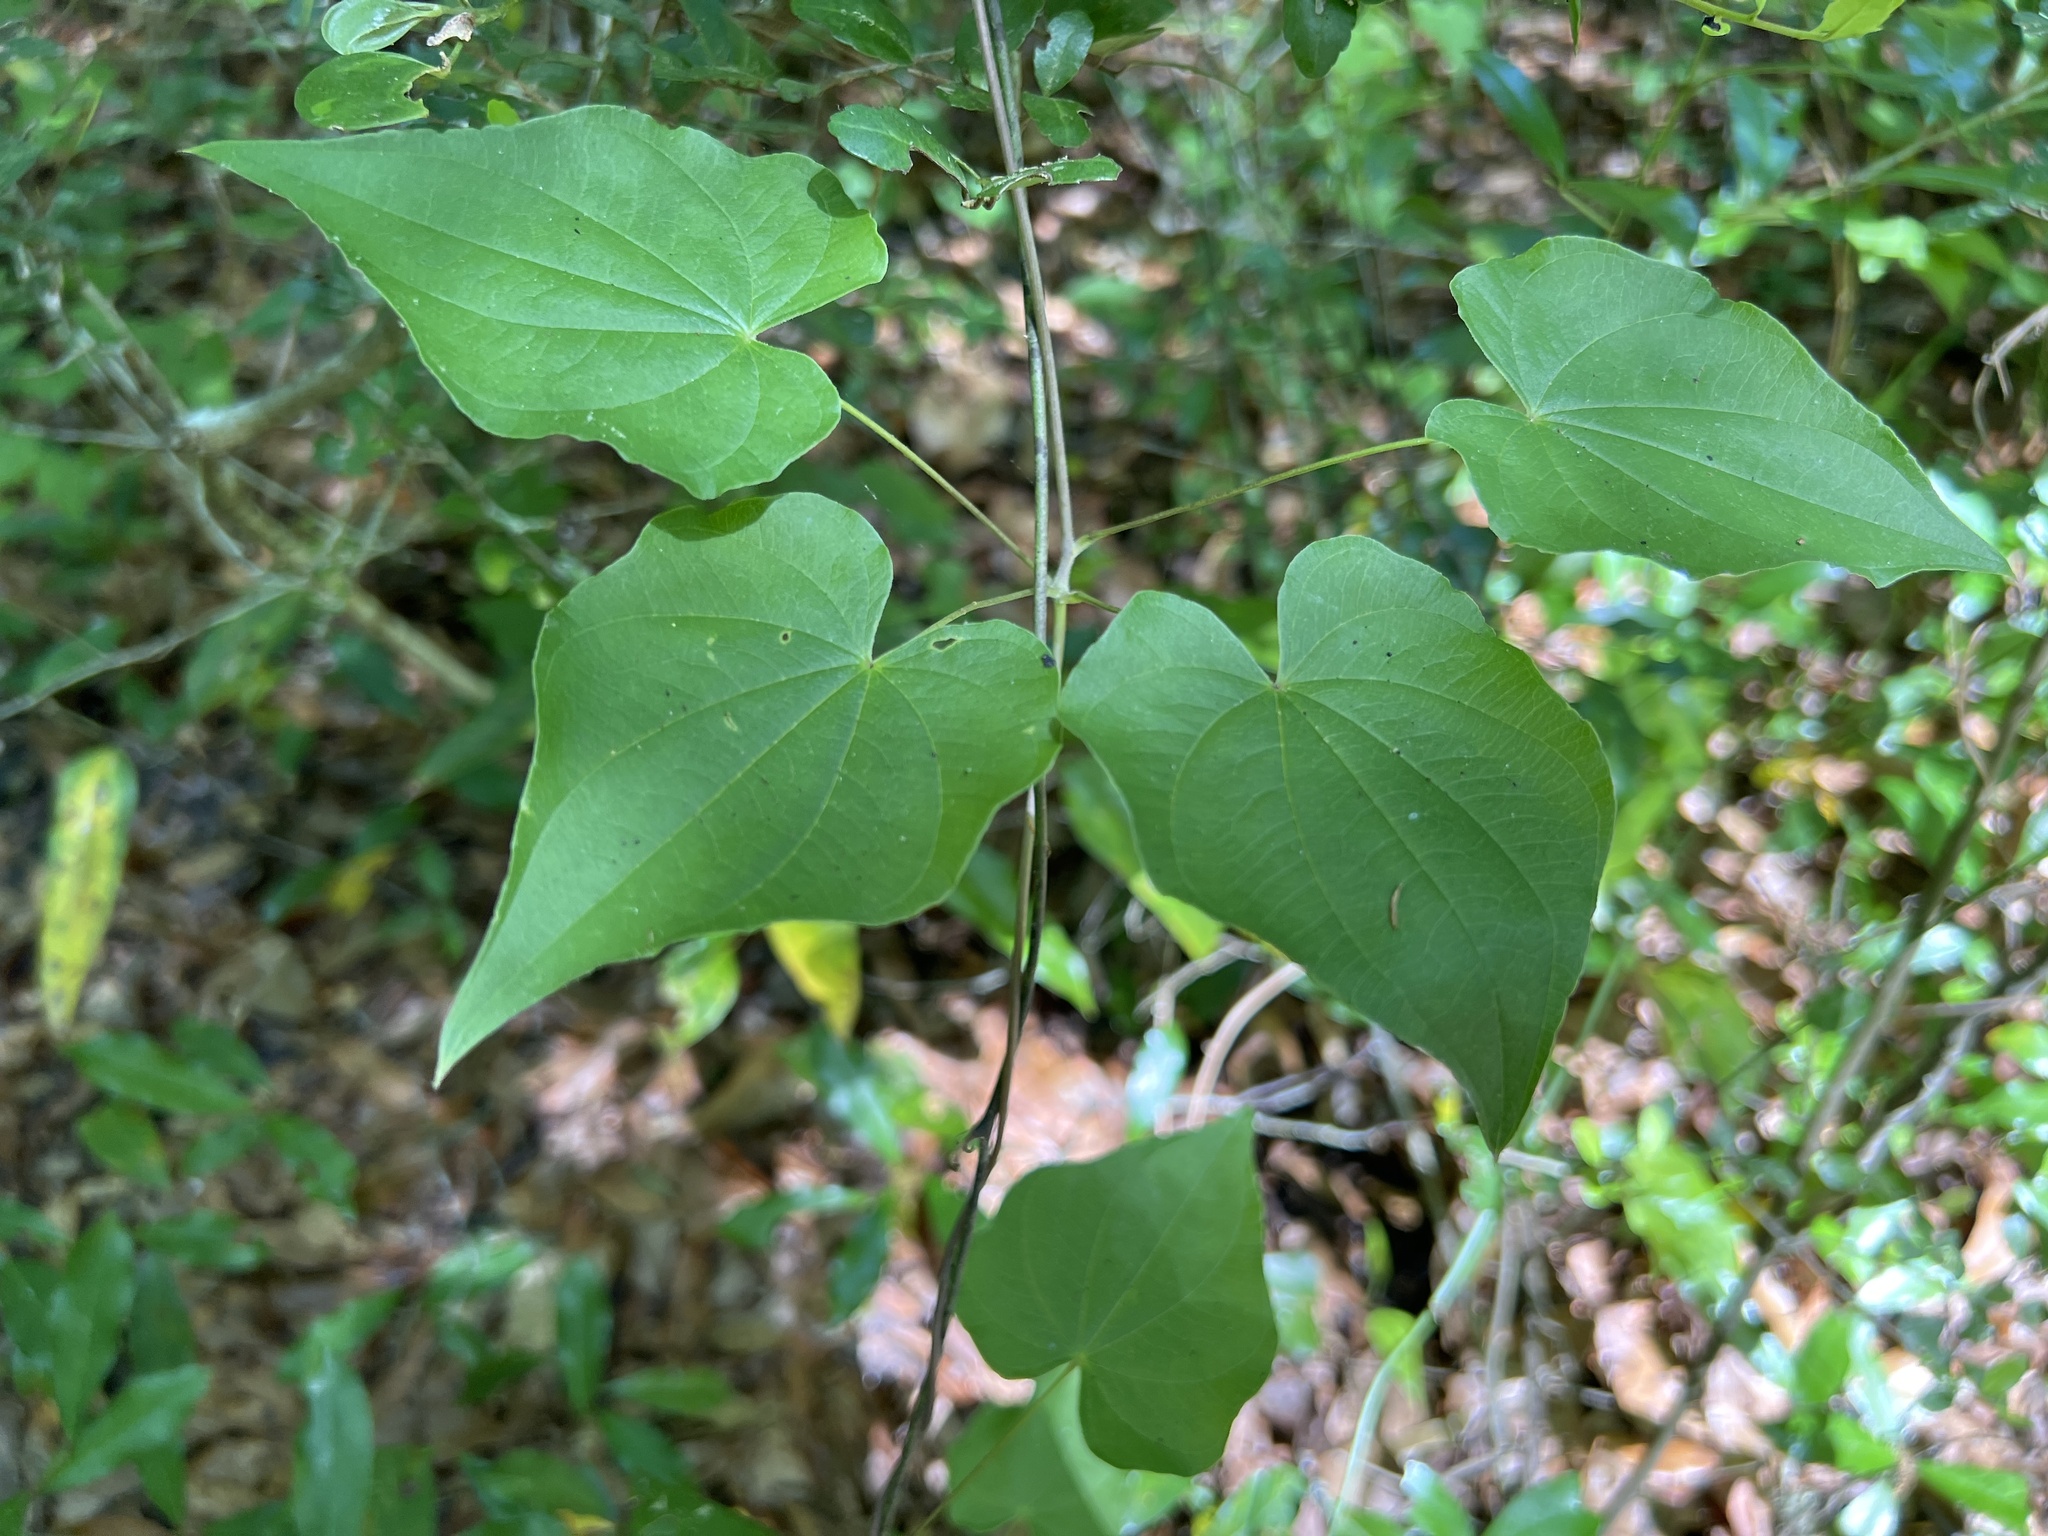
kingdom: Plantae
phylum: Tracheophyta
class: Liliopsida
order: Dioscoreales
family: Dioscoreaceae
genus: Dioscorea
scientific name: Dioscorea villosa
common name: Wild yam
